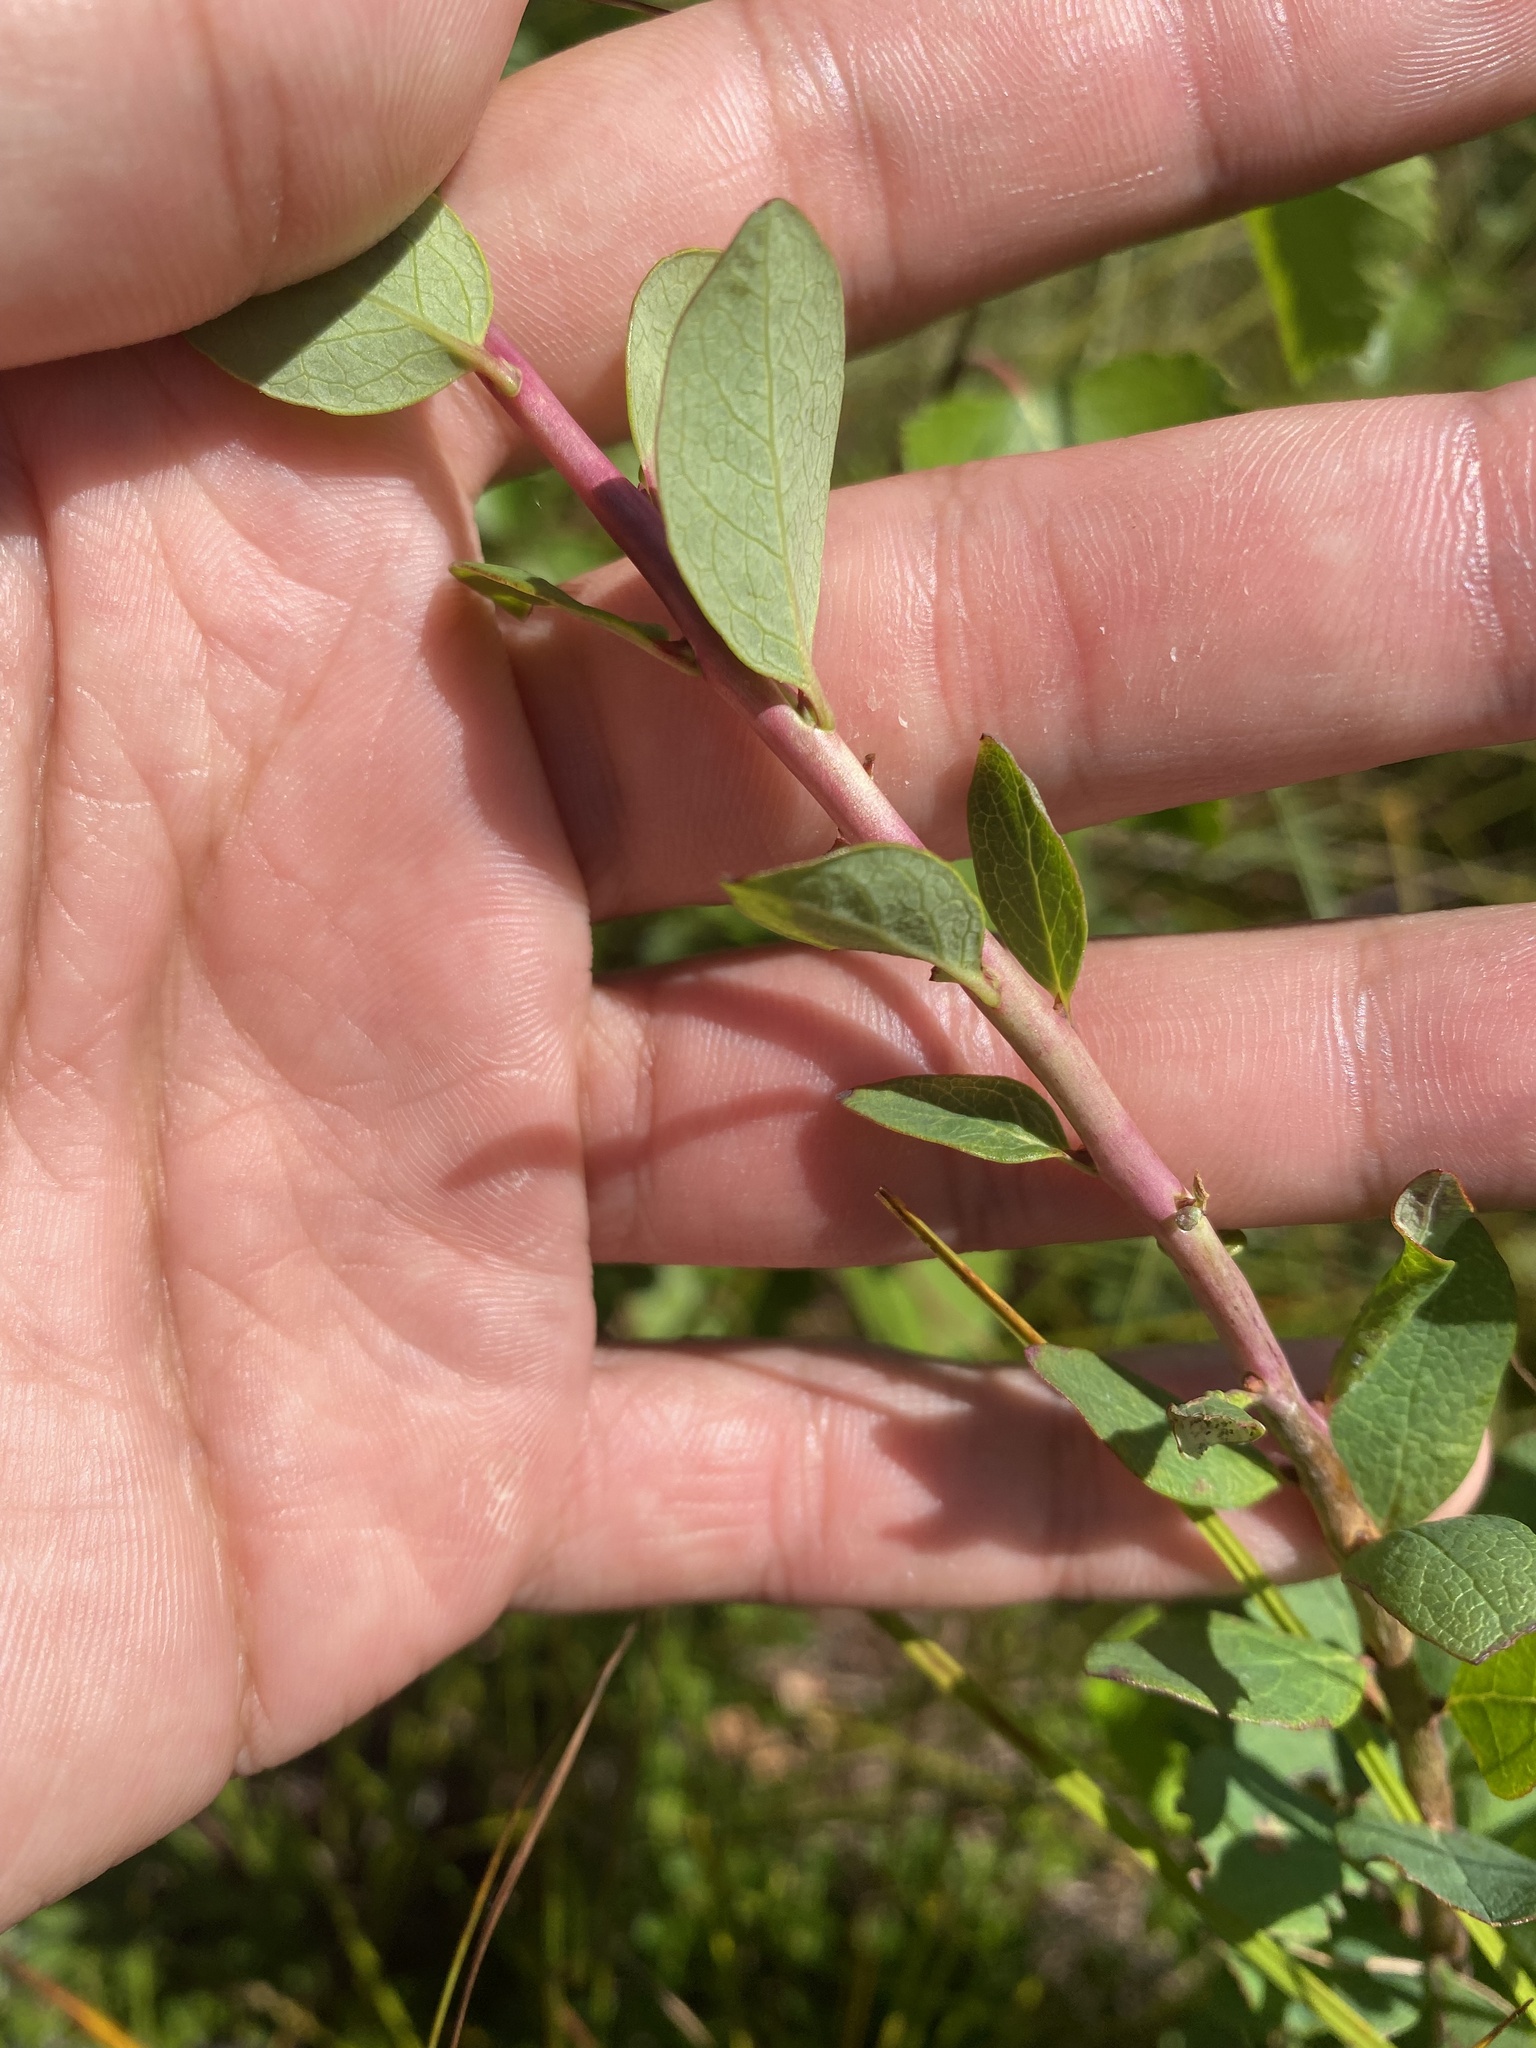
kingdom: Plantae
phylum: Tracheophyta
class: Magnoliopsida
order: Ericales
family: Ericaceae
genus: Vaccinium
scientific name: Vaccinium uliginosum
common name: Bog bilberry
